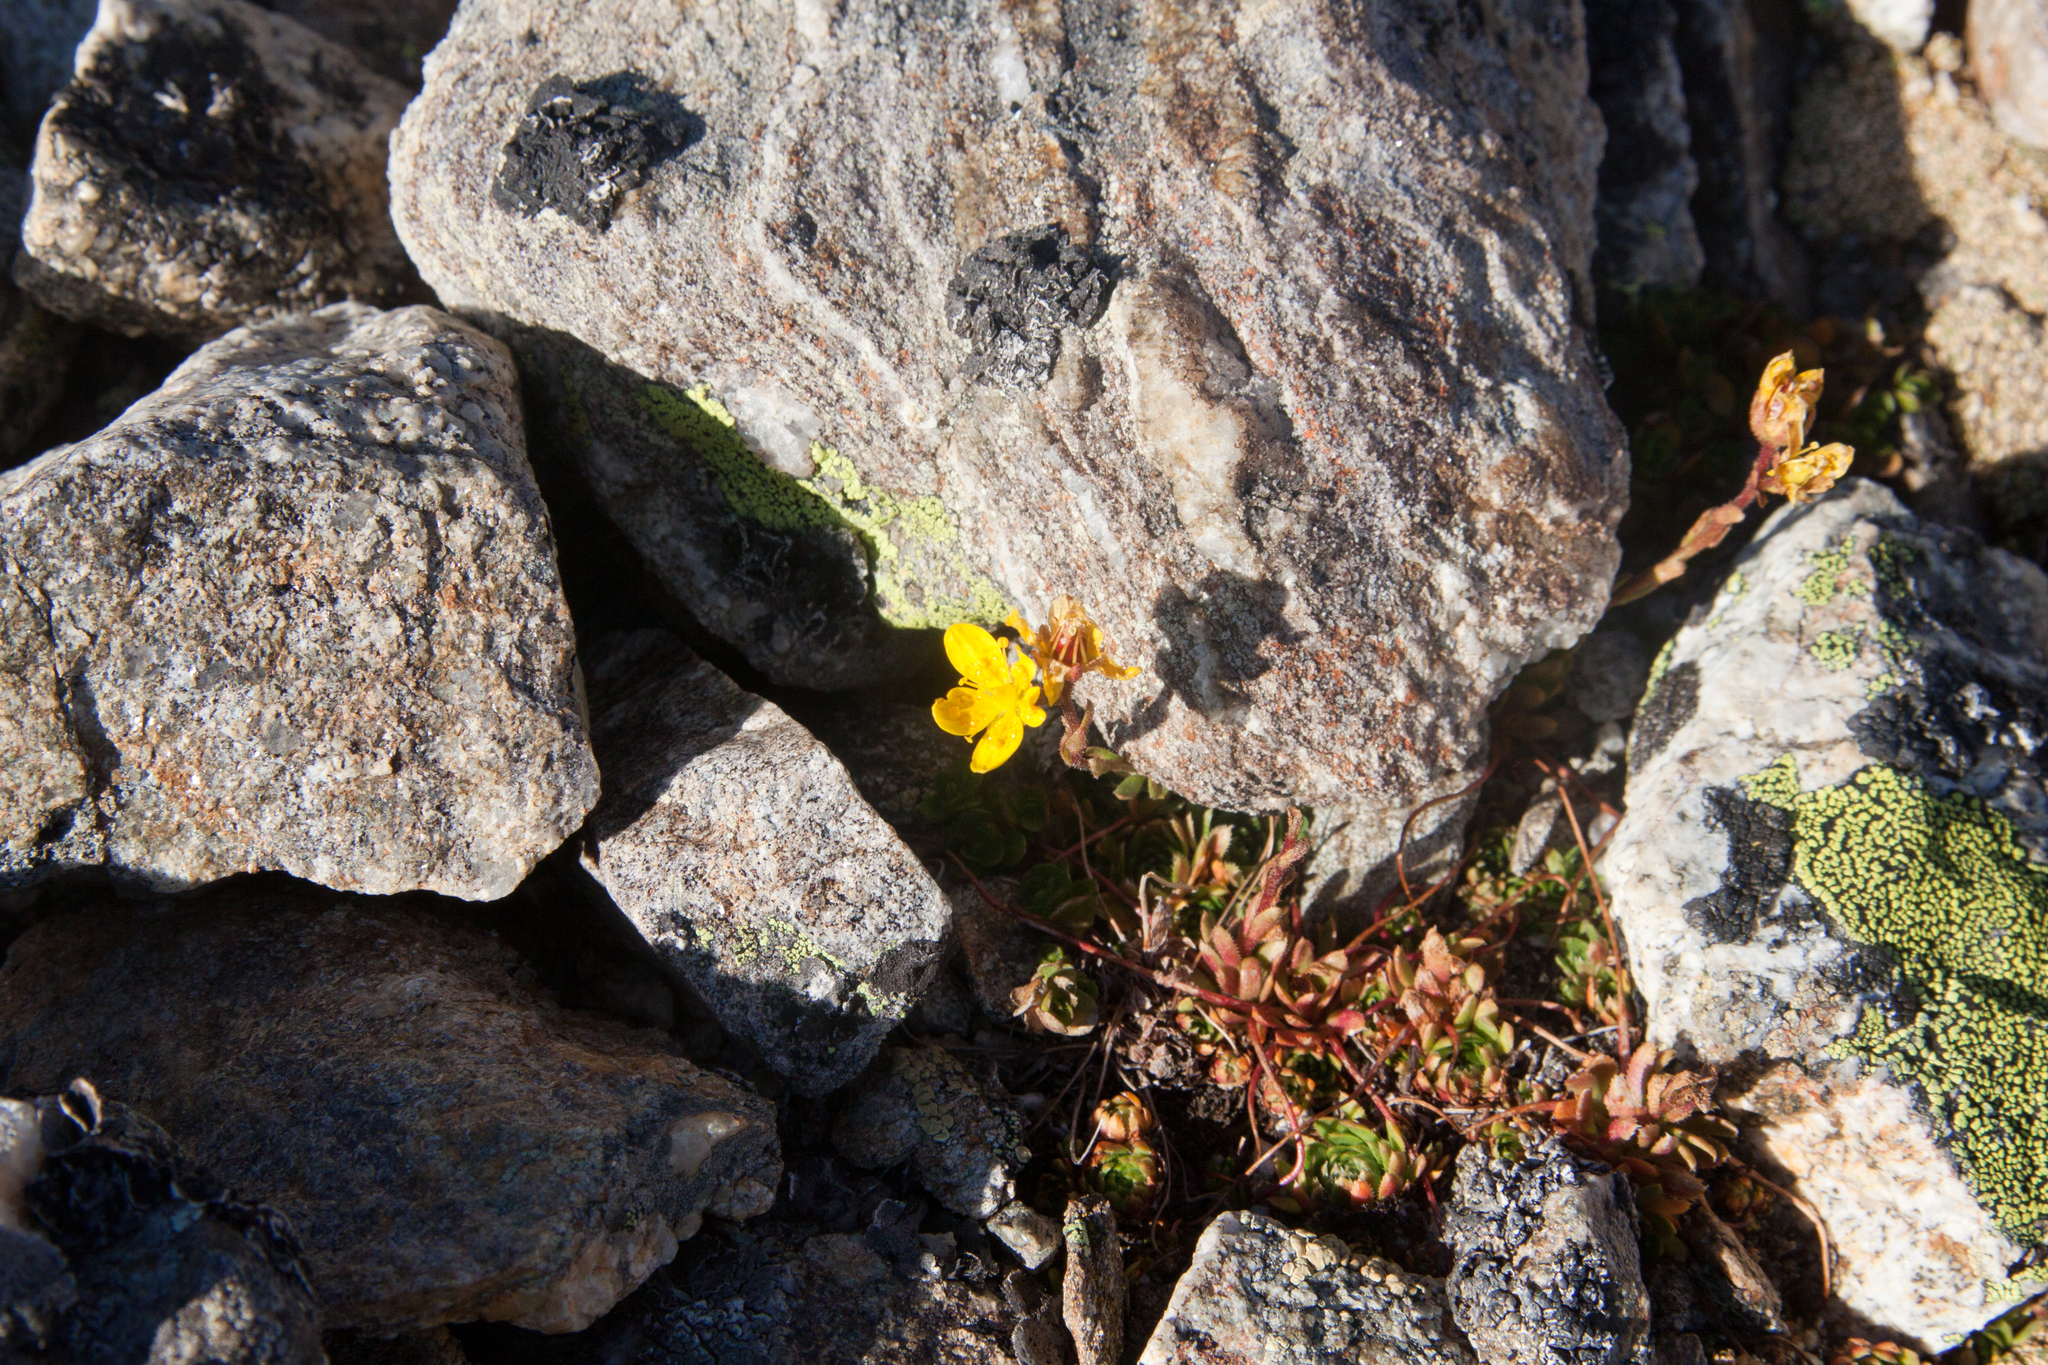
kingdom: Plantae
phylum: Tracheophyta
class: Magnoliopsida
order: Saxifragales
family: Saxifragaceae
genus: Saxifraga
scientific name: Saxifraga flagellaris
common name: Spider saxifrage
